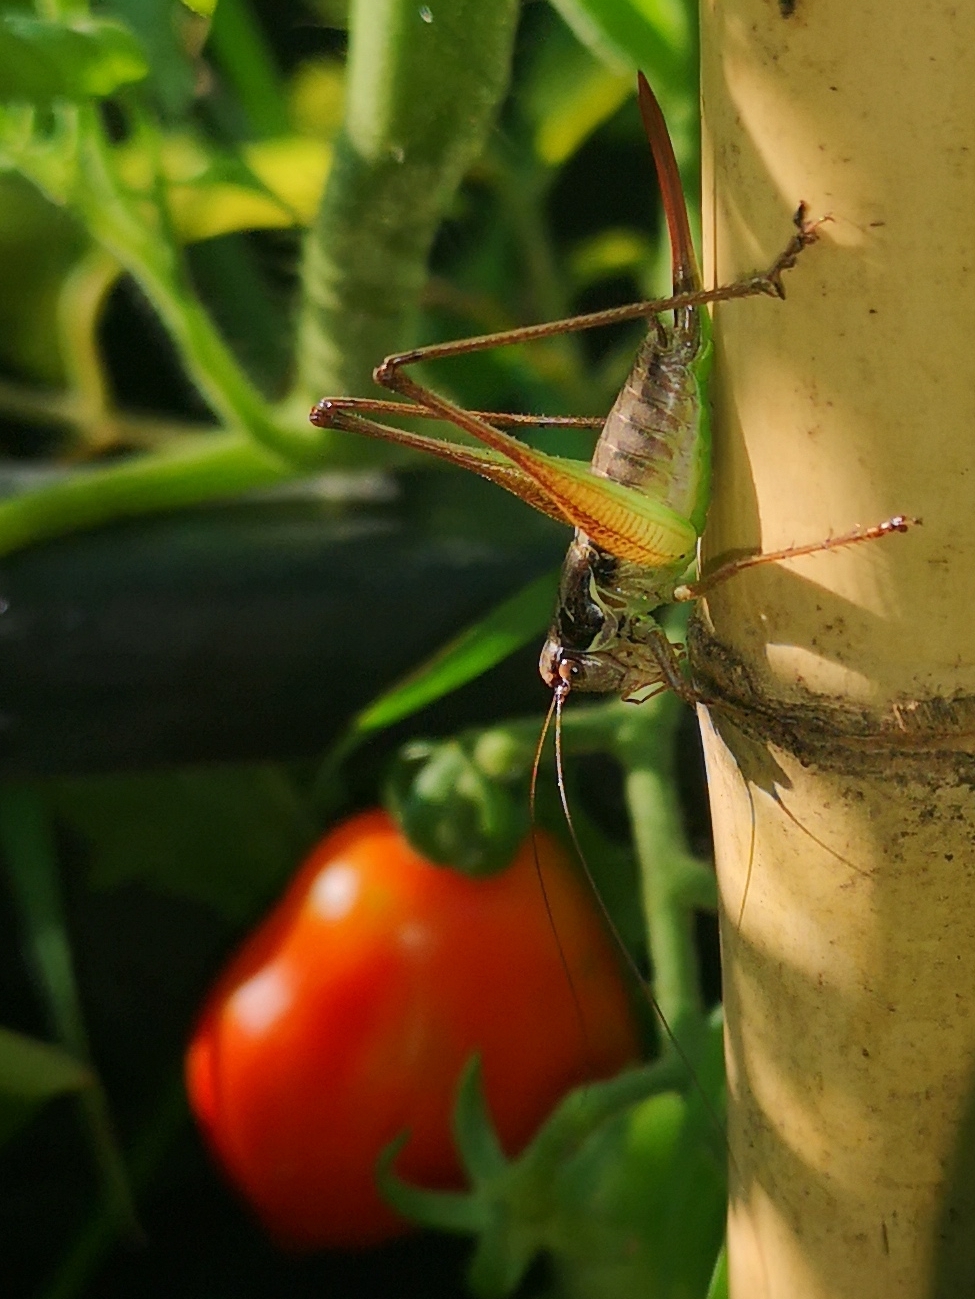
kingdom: Animalia
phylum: Arthropoda
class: Insecta
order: Orthoptera
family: Tettigoniidae
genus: Pachytrachis
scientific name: Pachytrachis gracilis
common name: Graceful bush-cricket
